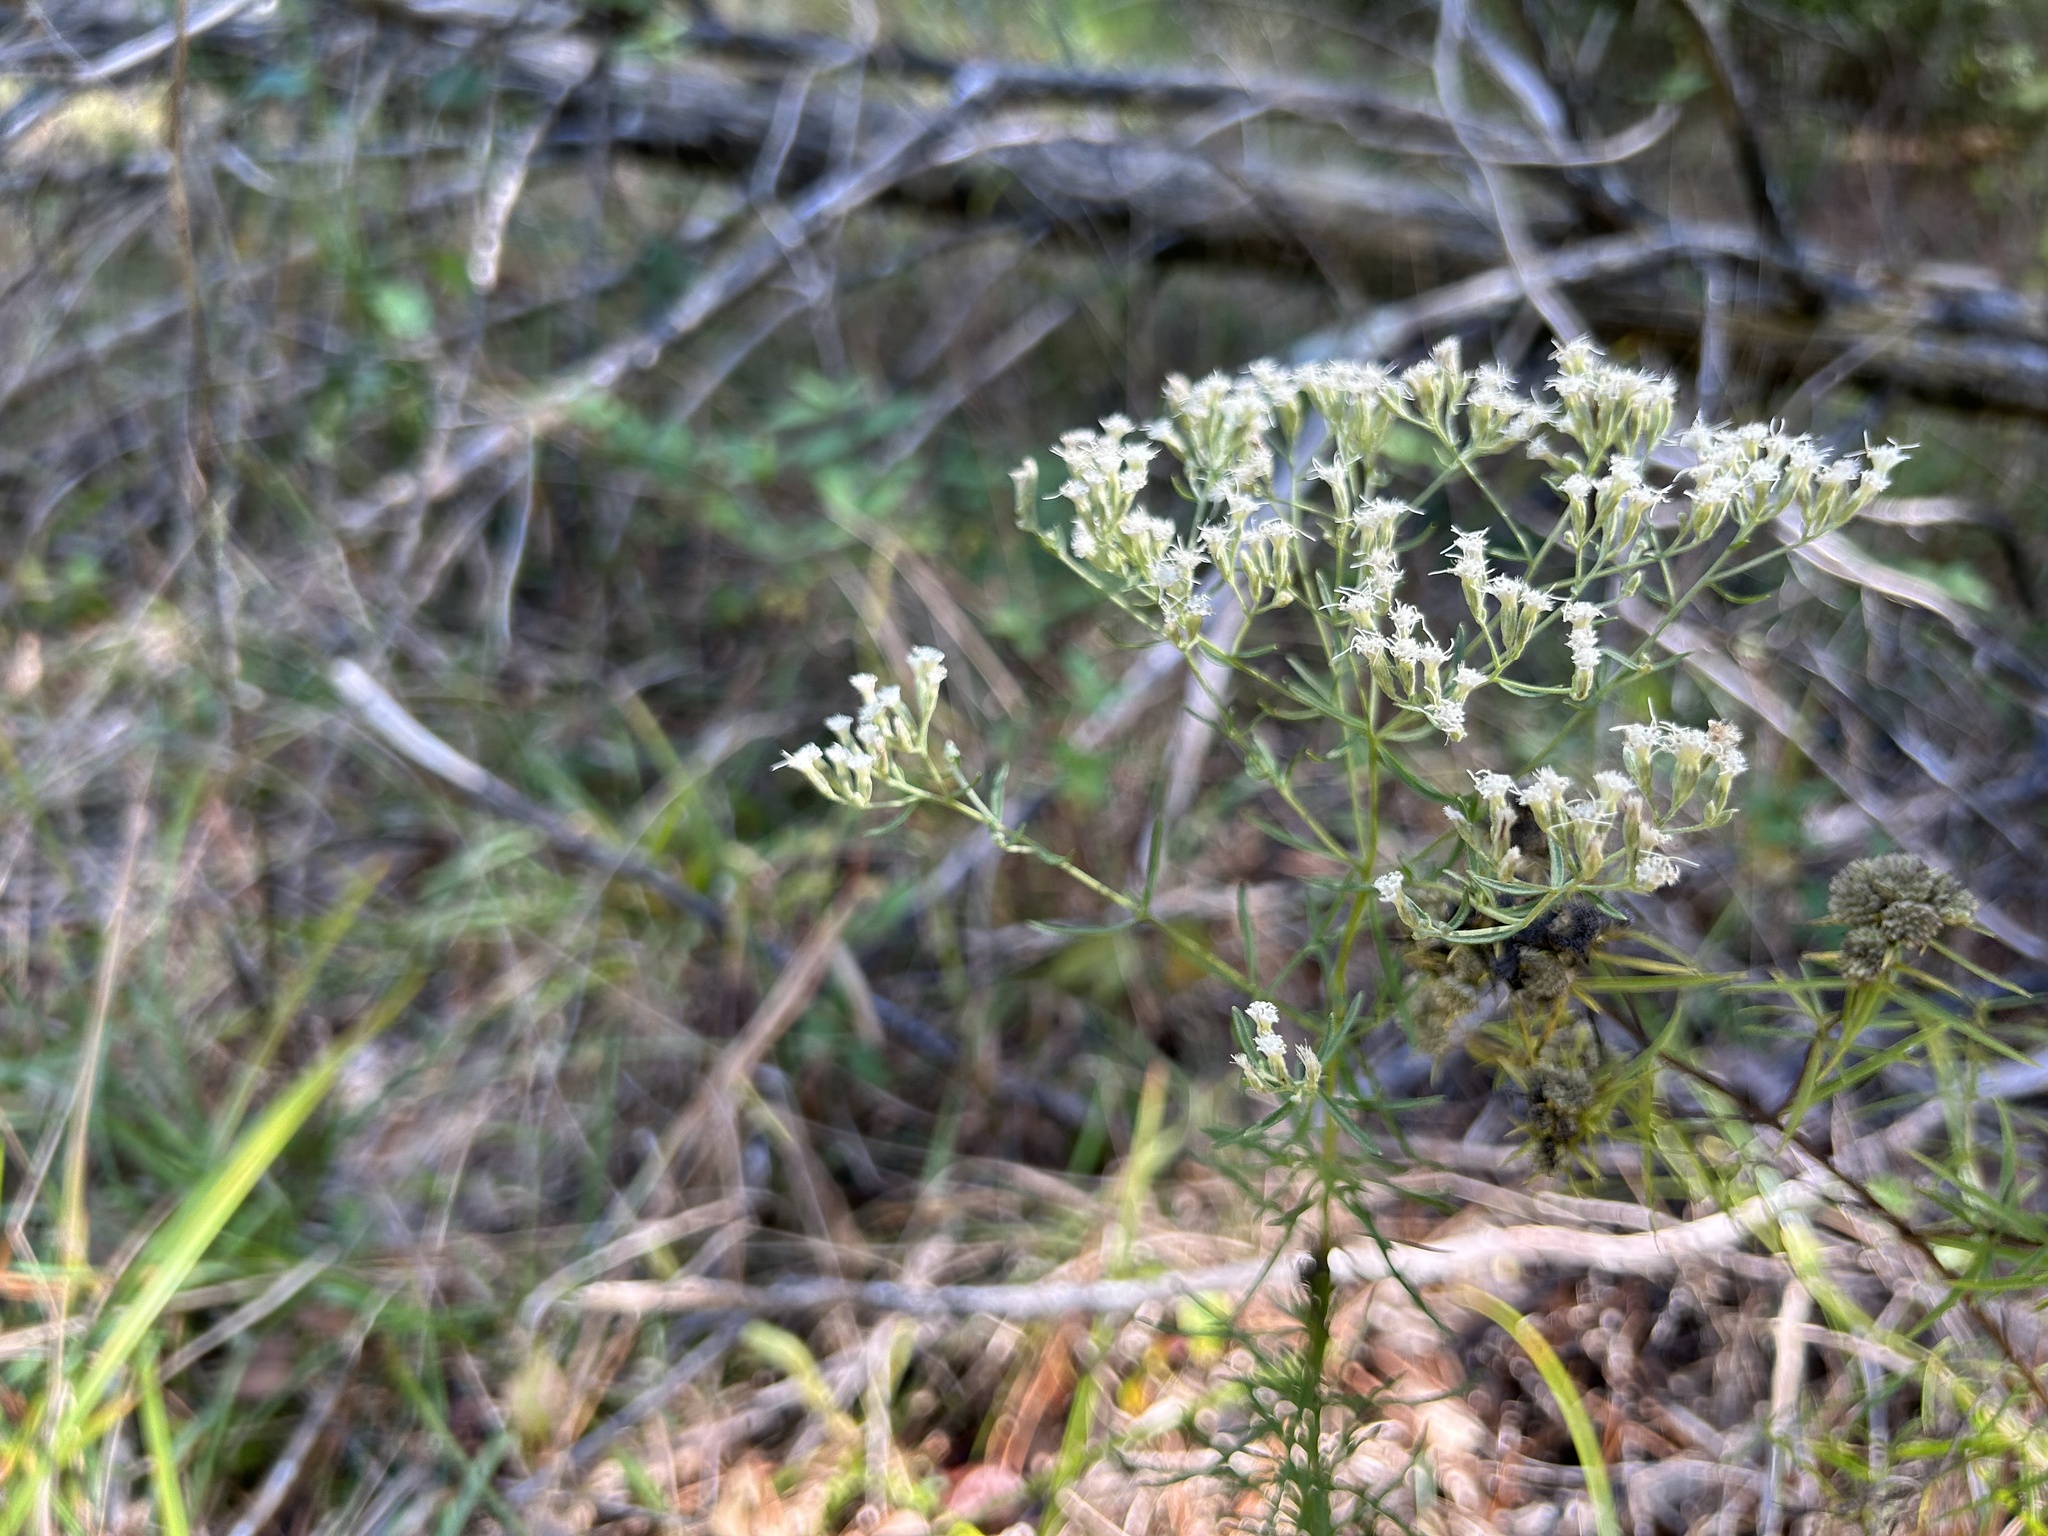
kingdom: Plantae
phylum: Tracheophyta
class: Magnoliopsida
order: Lamiales
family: Lamiaceae
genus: Pycnanthemum
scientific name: Pycnanthemum tenuifolium
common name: Narrow-leaf mountain-mint
